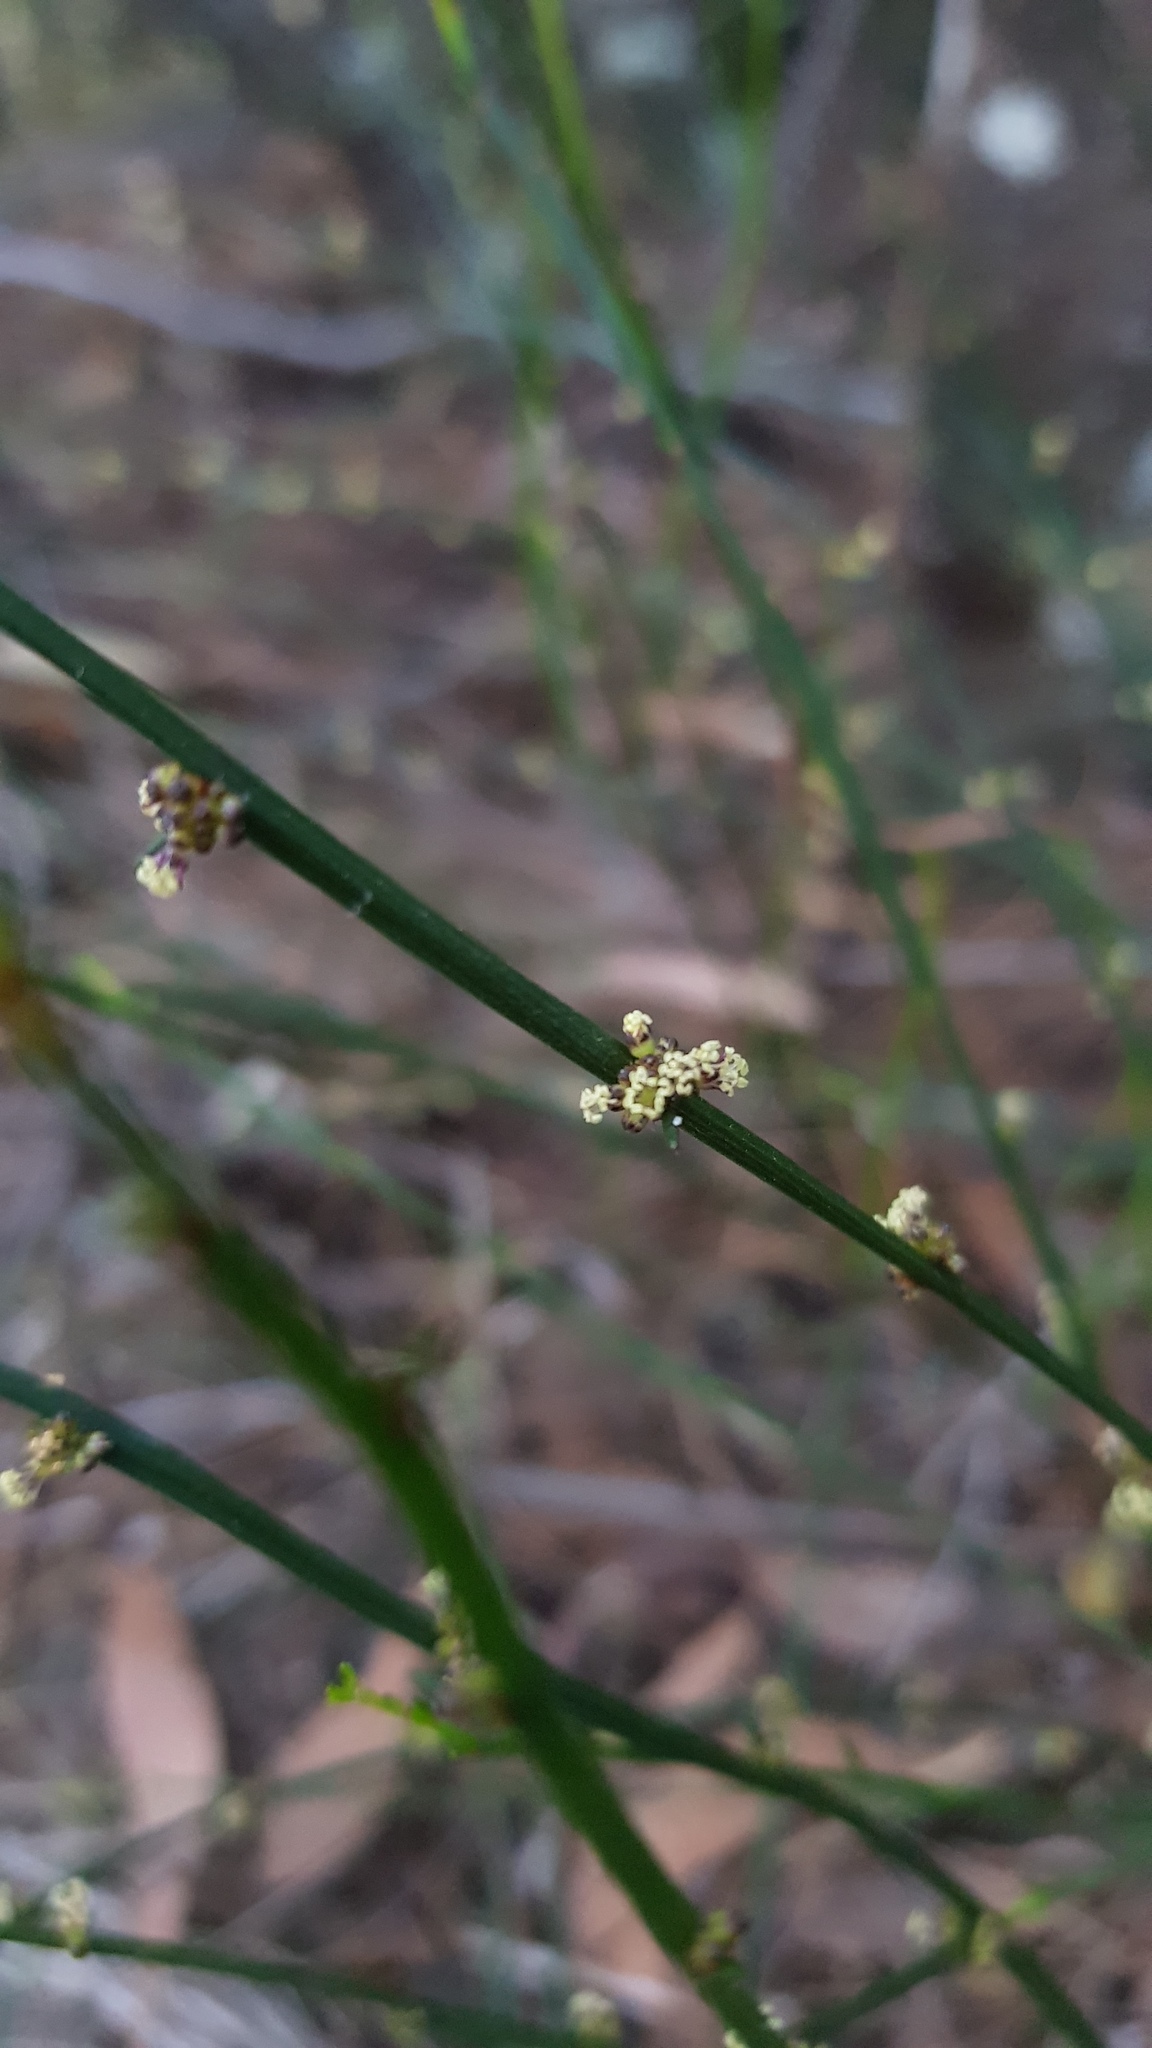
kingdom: Plantae
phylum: Tracheophyta
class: Magnoliopsida
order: Malpighiales
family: Euphorbiaceae
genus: Amperea
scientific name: Amperea xiphoclada
